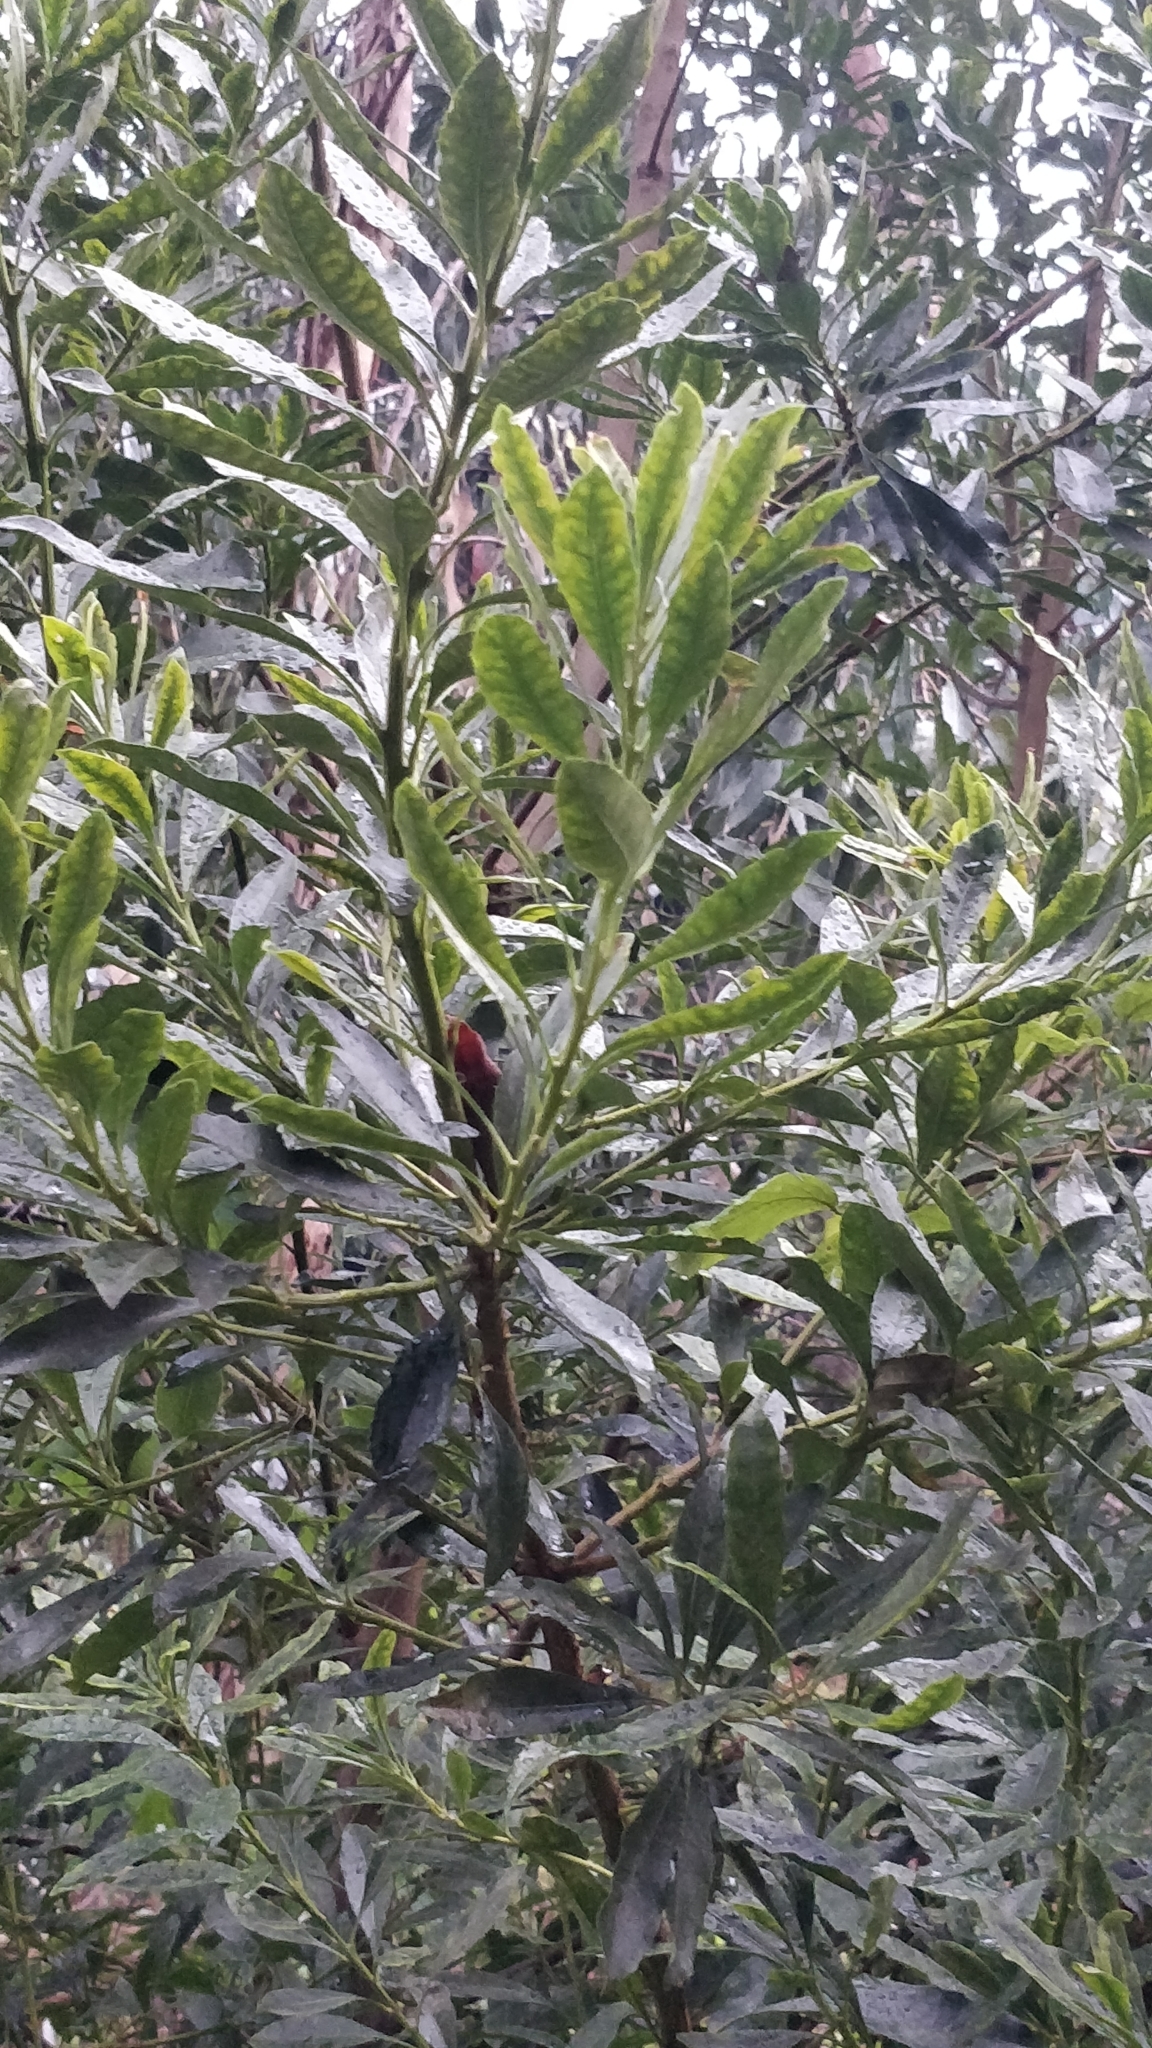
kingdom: Plantae
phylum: Tracheophyta
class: Magnoliopsida
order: Fagales
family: Myricaceae
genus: Morella
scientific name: Morella faya
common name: Firetree
